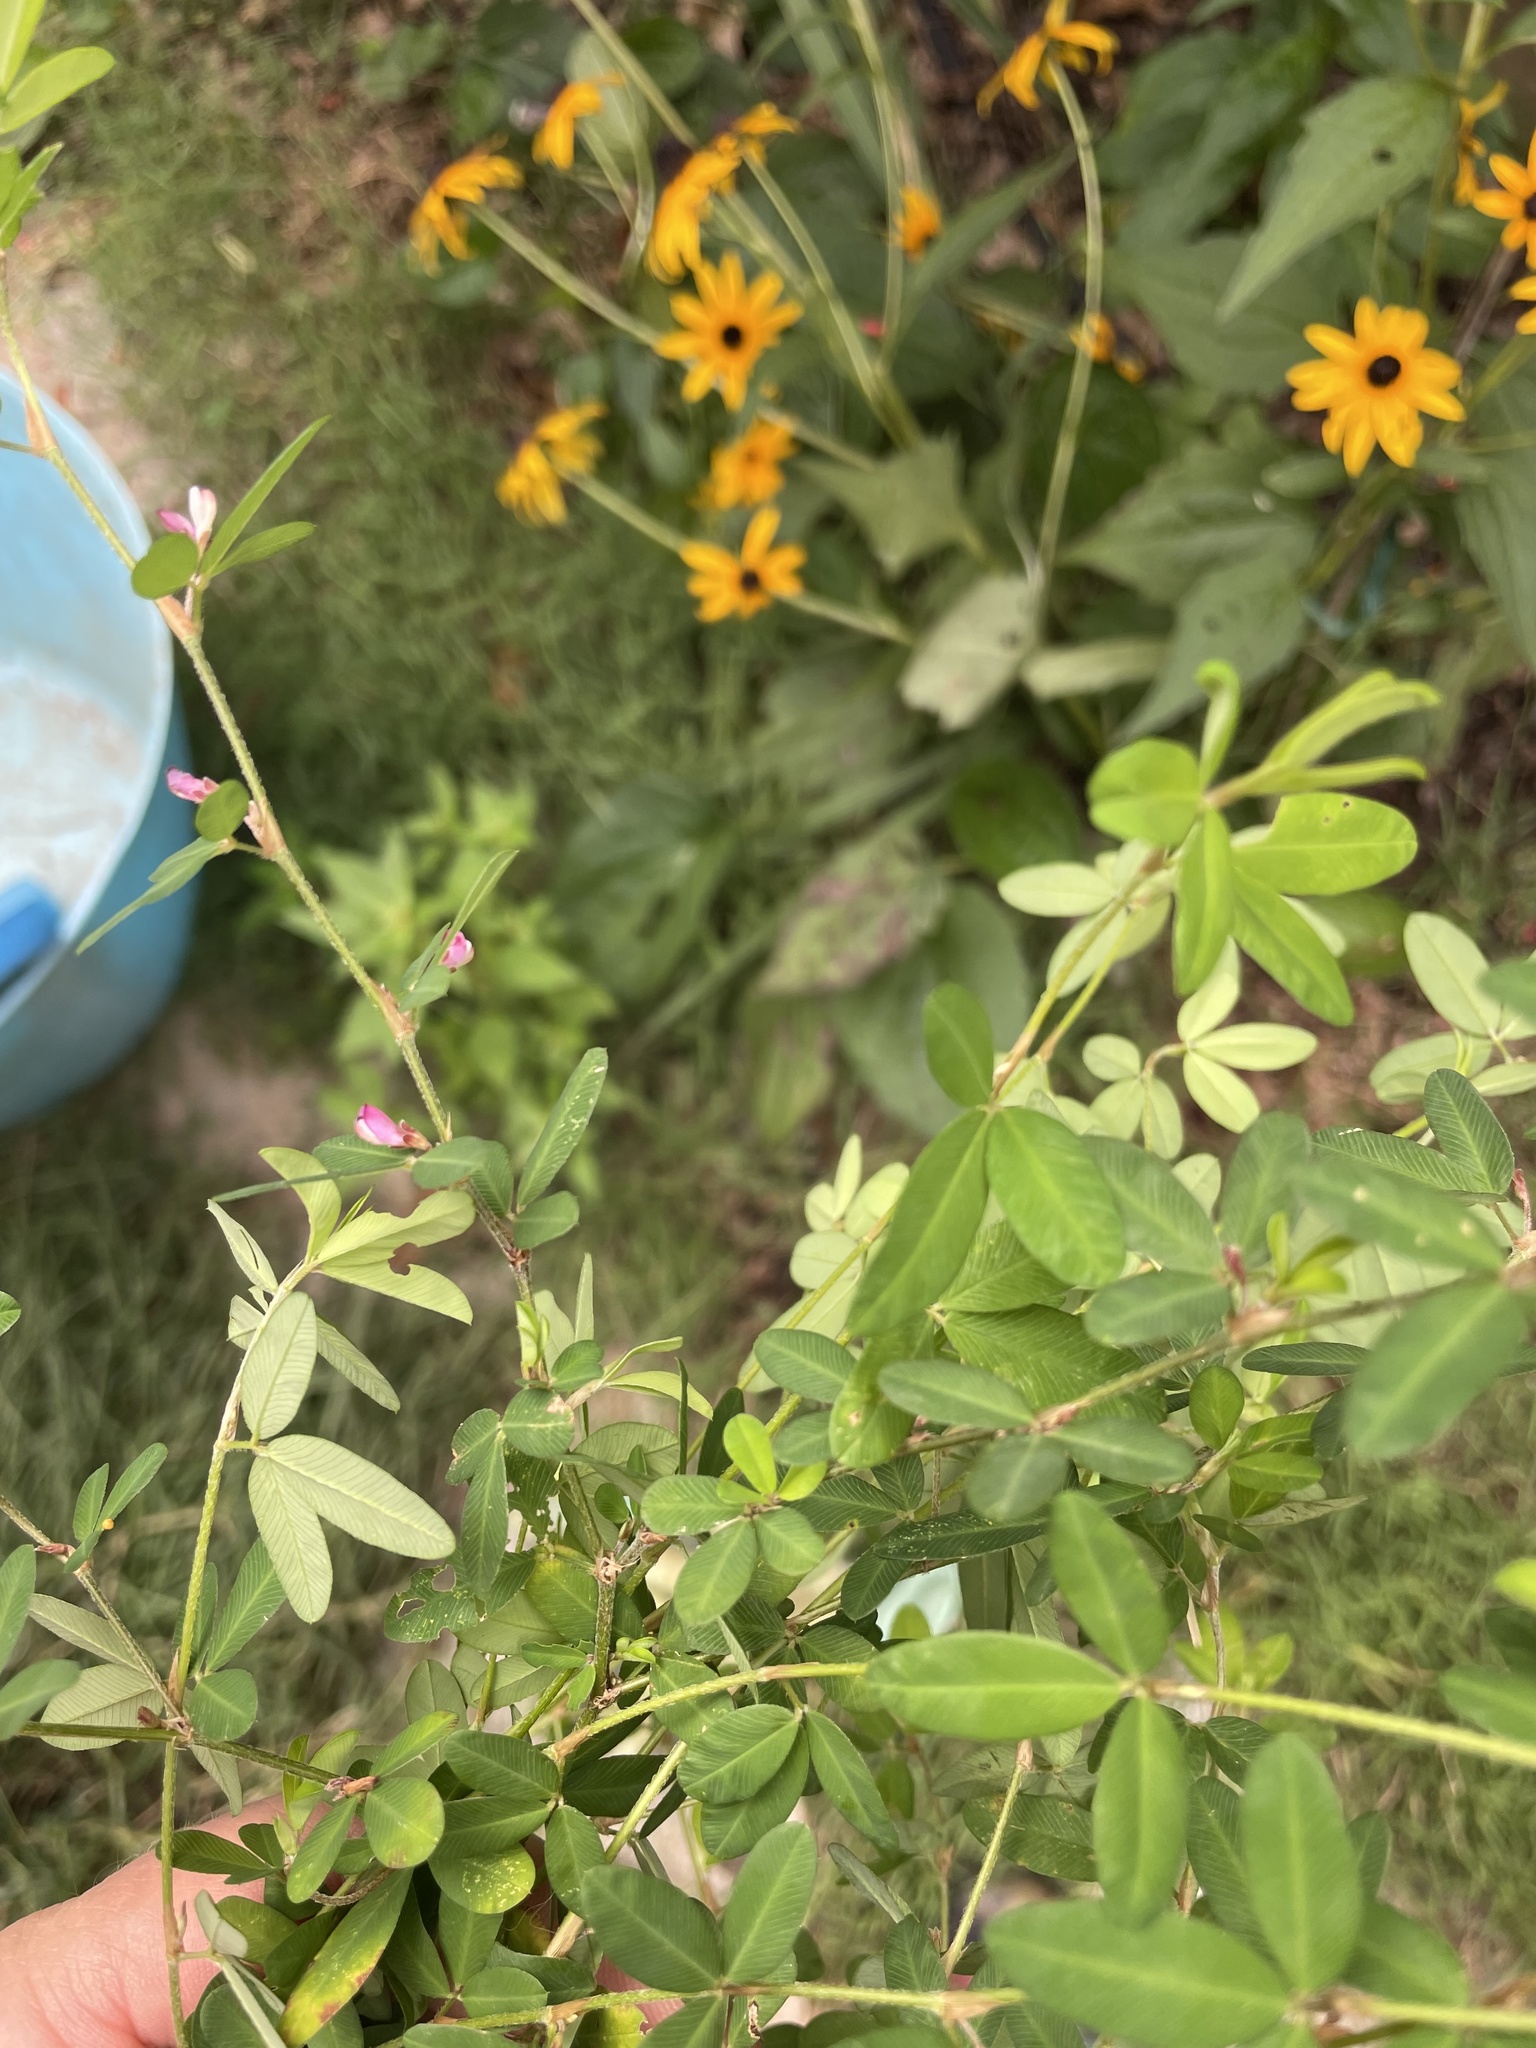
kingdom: Plantae
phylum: Tracheophyta
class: Magnoliopsida
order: Fabales
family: Fabaceae
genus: Kummerowia
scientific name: Kummerowia striata
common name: Japanese clover
